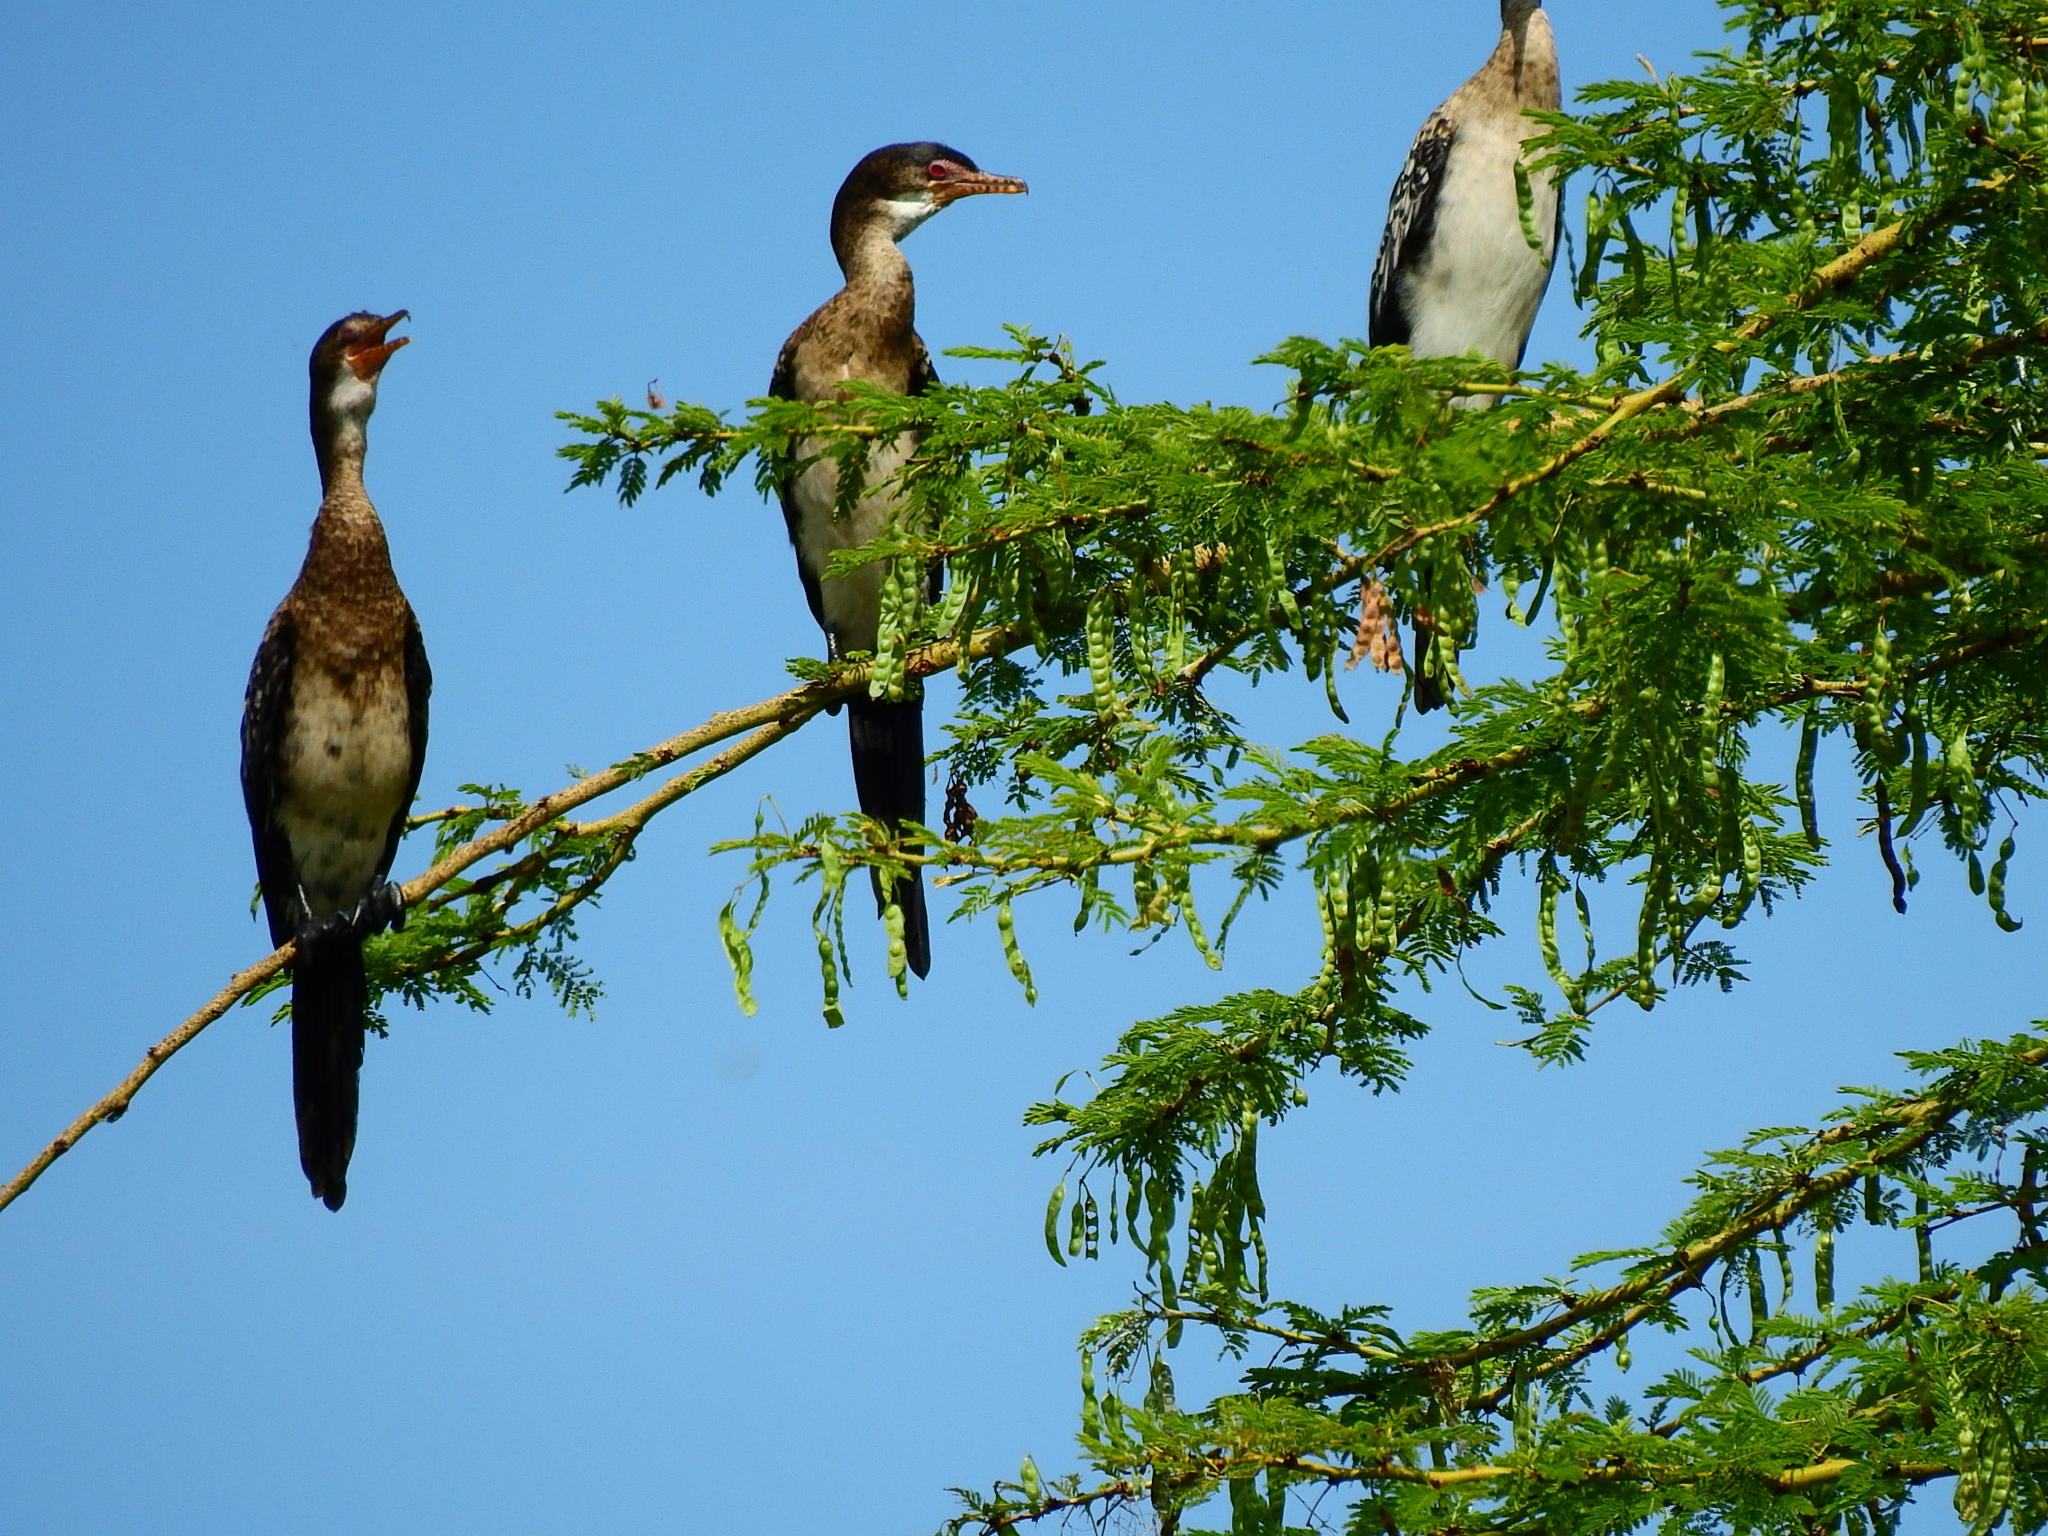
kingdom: Animalia
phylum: Chordata
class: Aves
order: Suliformes
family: Phalacrocoracidae
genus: Microcarbo
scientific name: Microcarbo africanus
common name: Long-tailed cormorant
